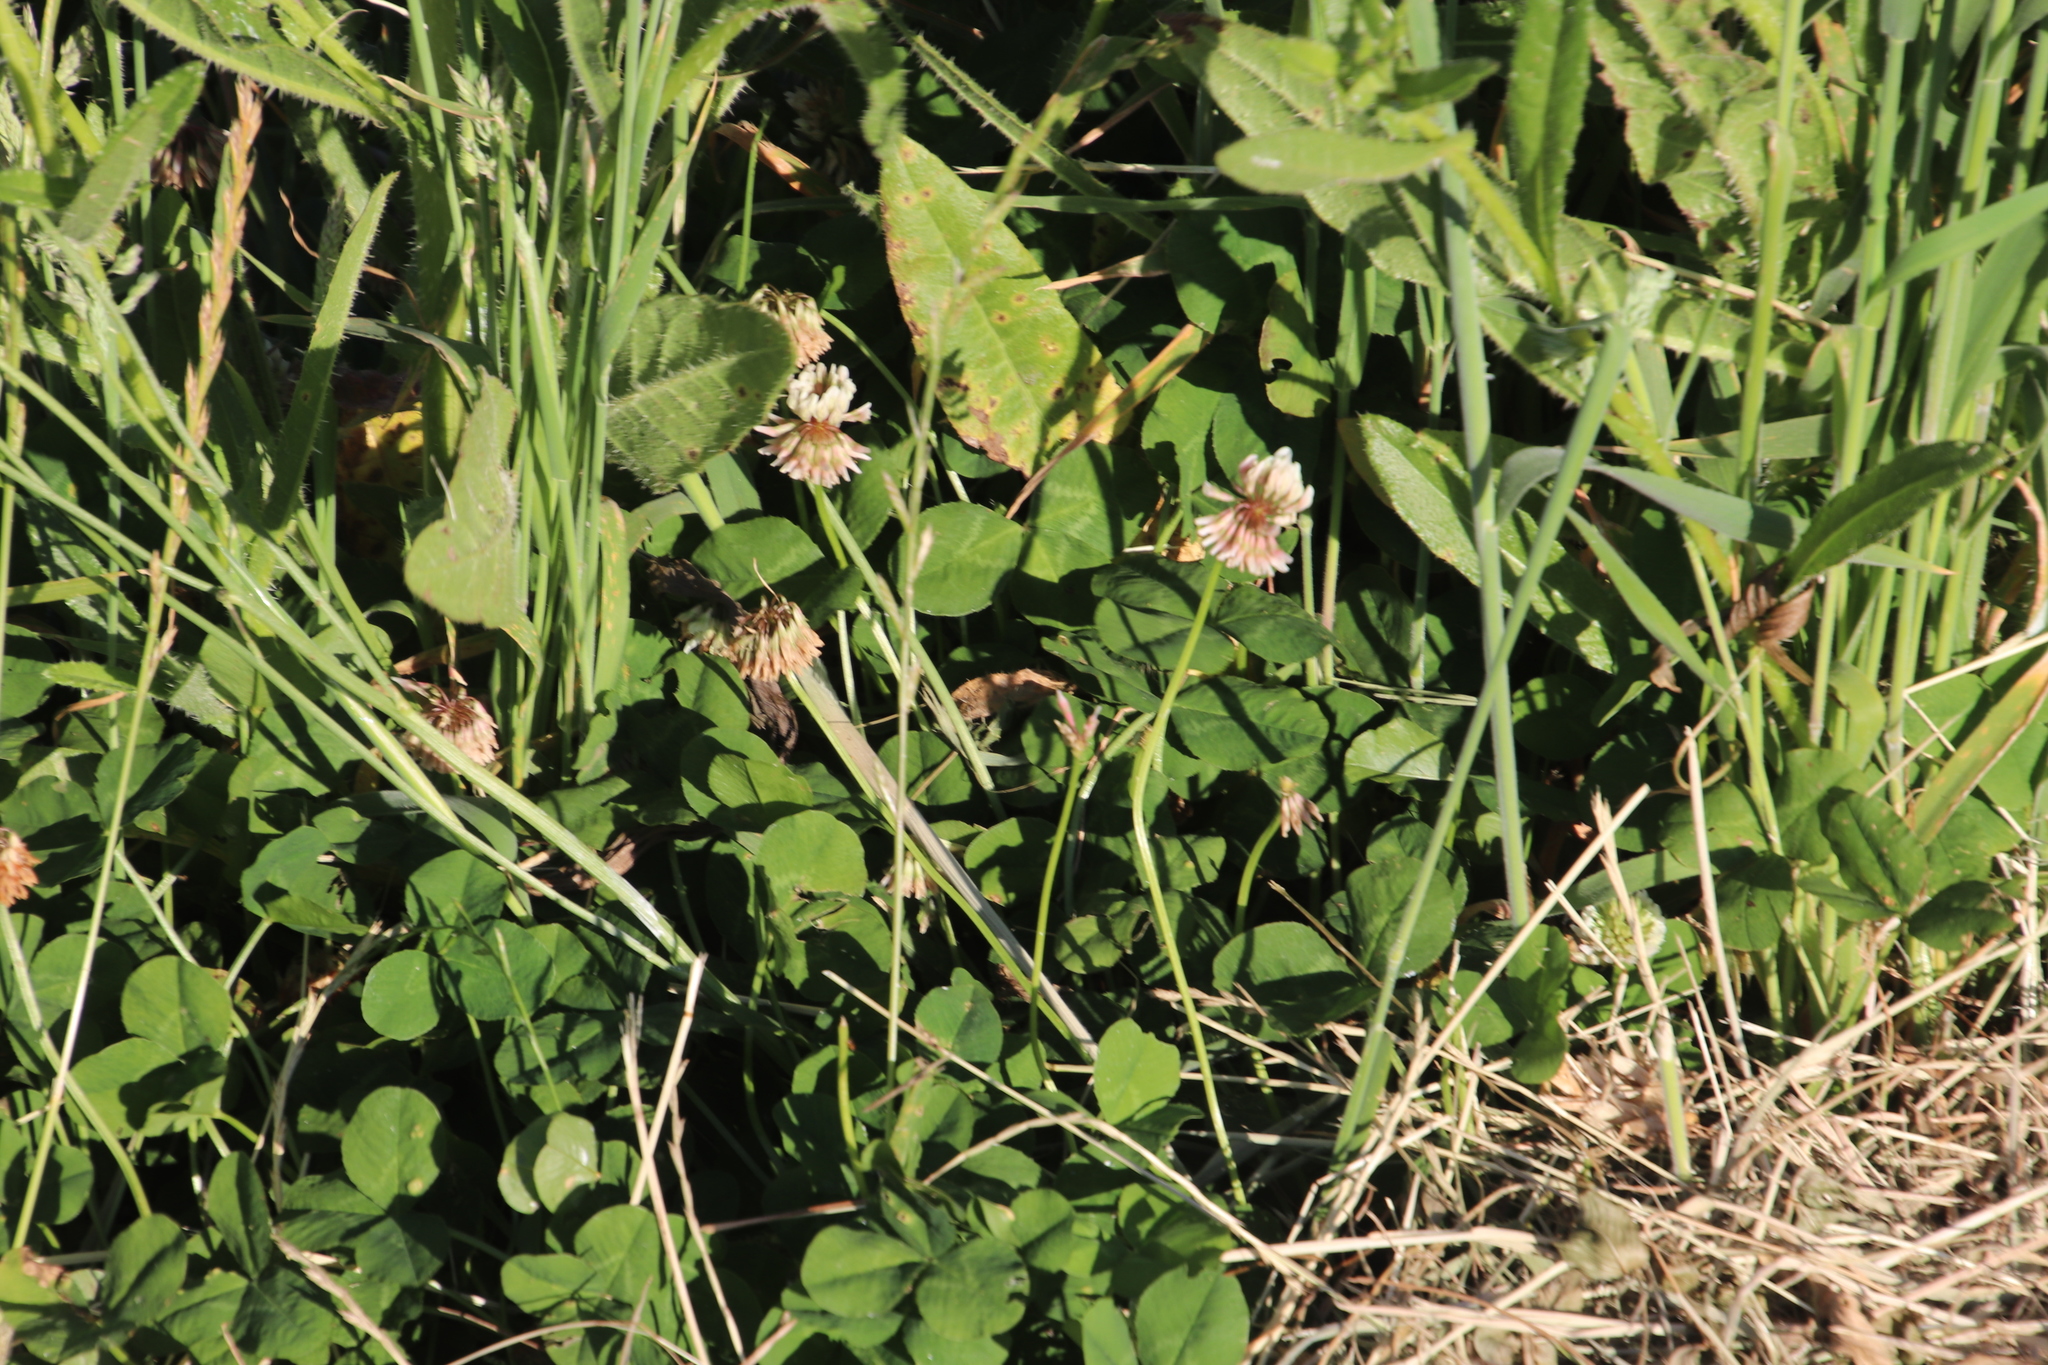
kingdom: Plantae
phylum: Tracheophyta
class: Magnoliopsida
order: Fabales
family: Fabaceae
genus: Trifolium
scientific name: Trifolium repens
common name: White clover
